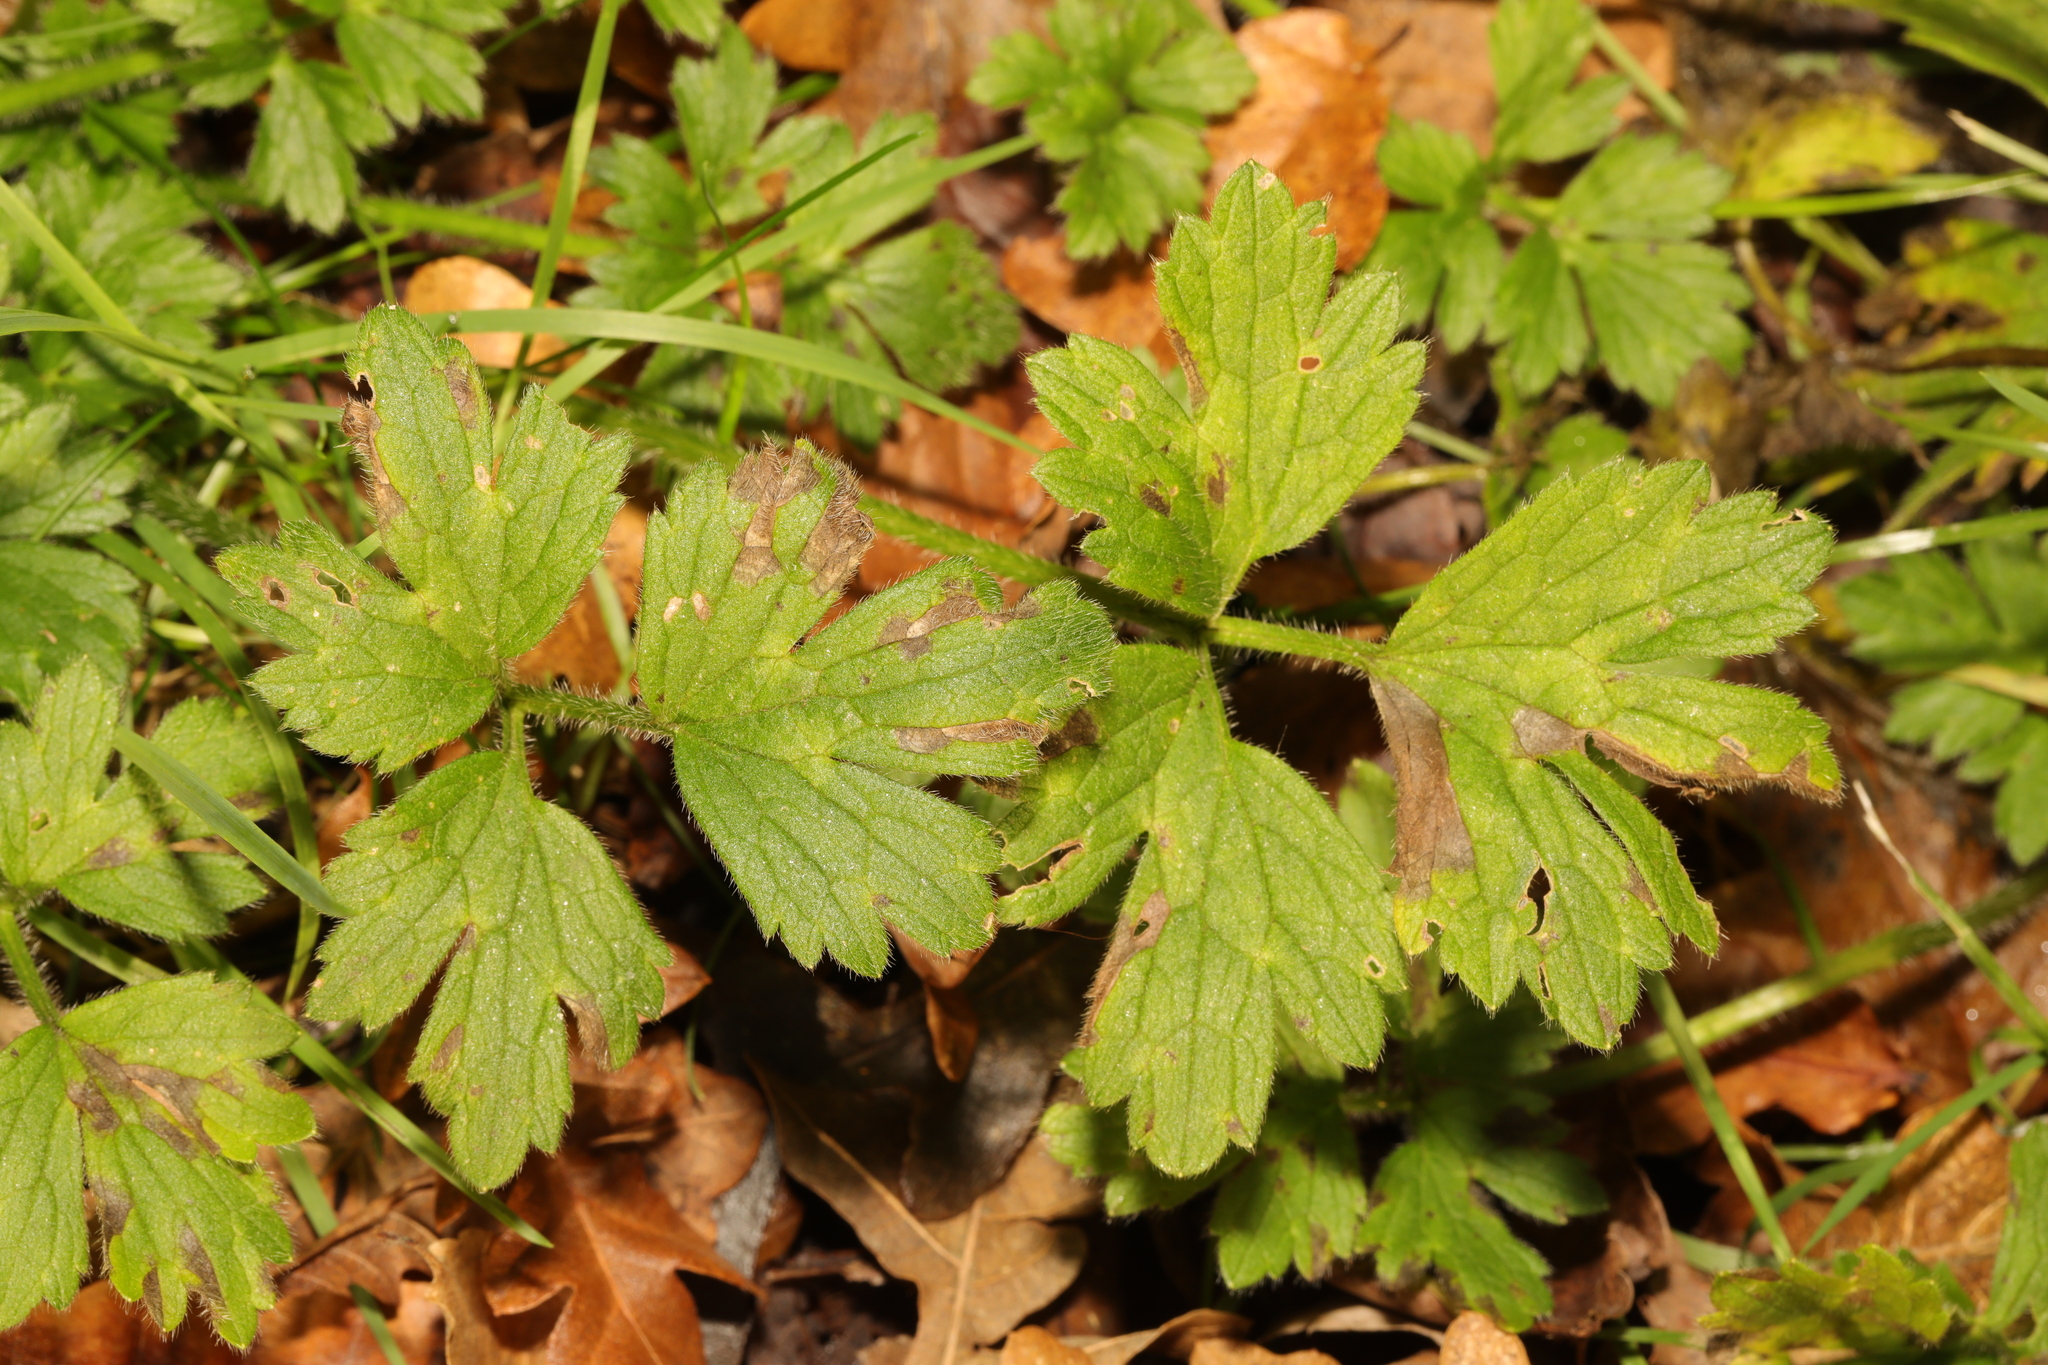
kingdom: Plantae
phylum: Tracheophyta
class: Magnoliopsida
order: Ranunculales
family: Ranunculaceae
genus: Ranunculus
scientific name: Ranunculus repens
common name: Creeping buttercup
